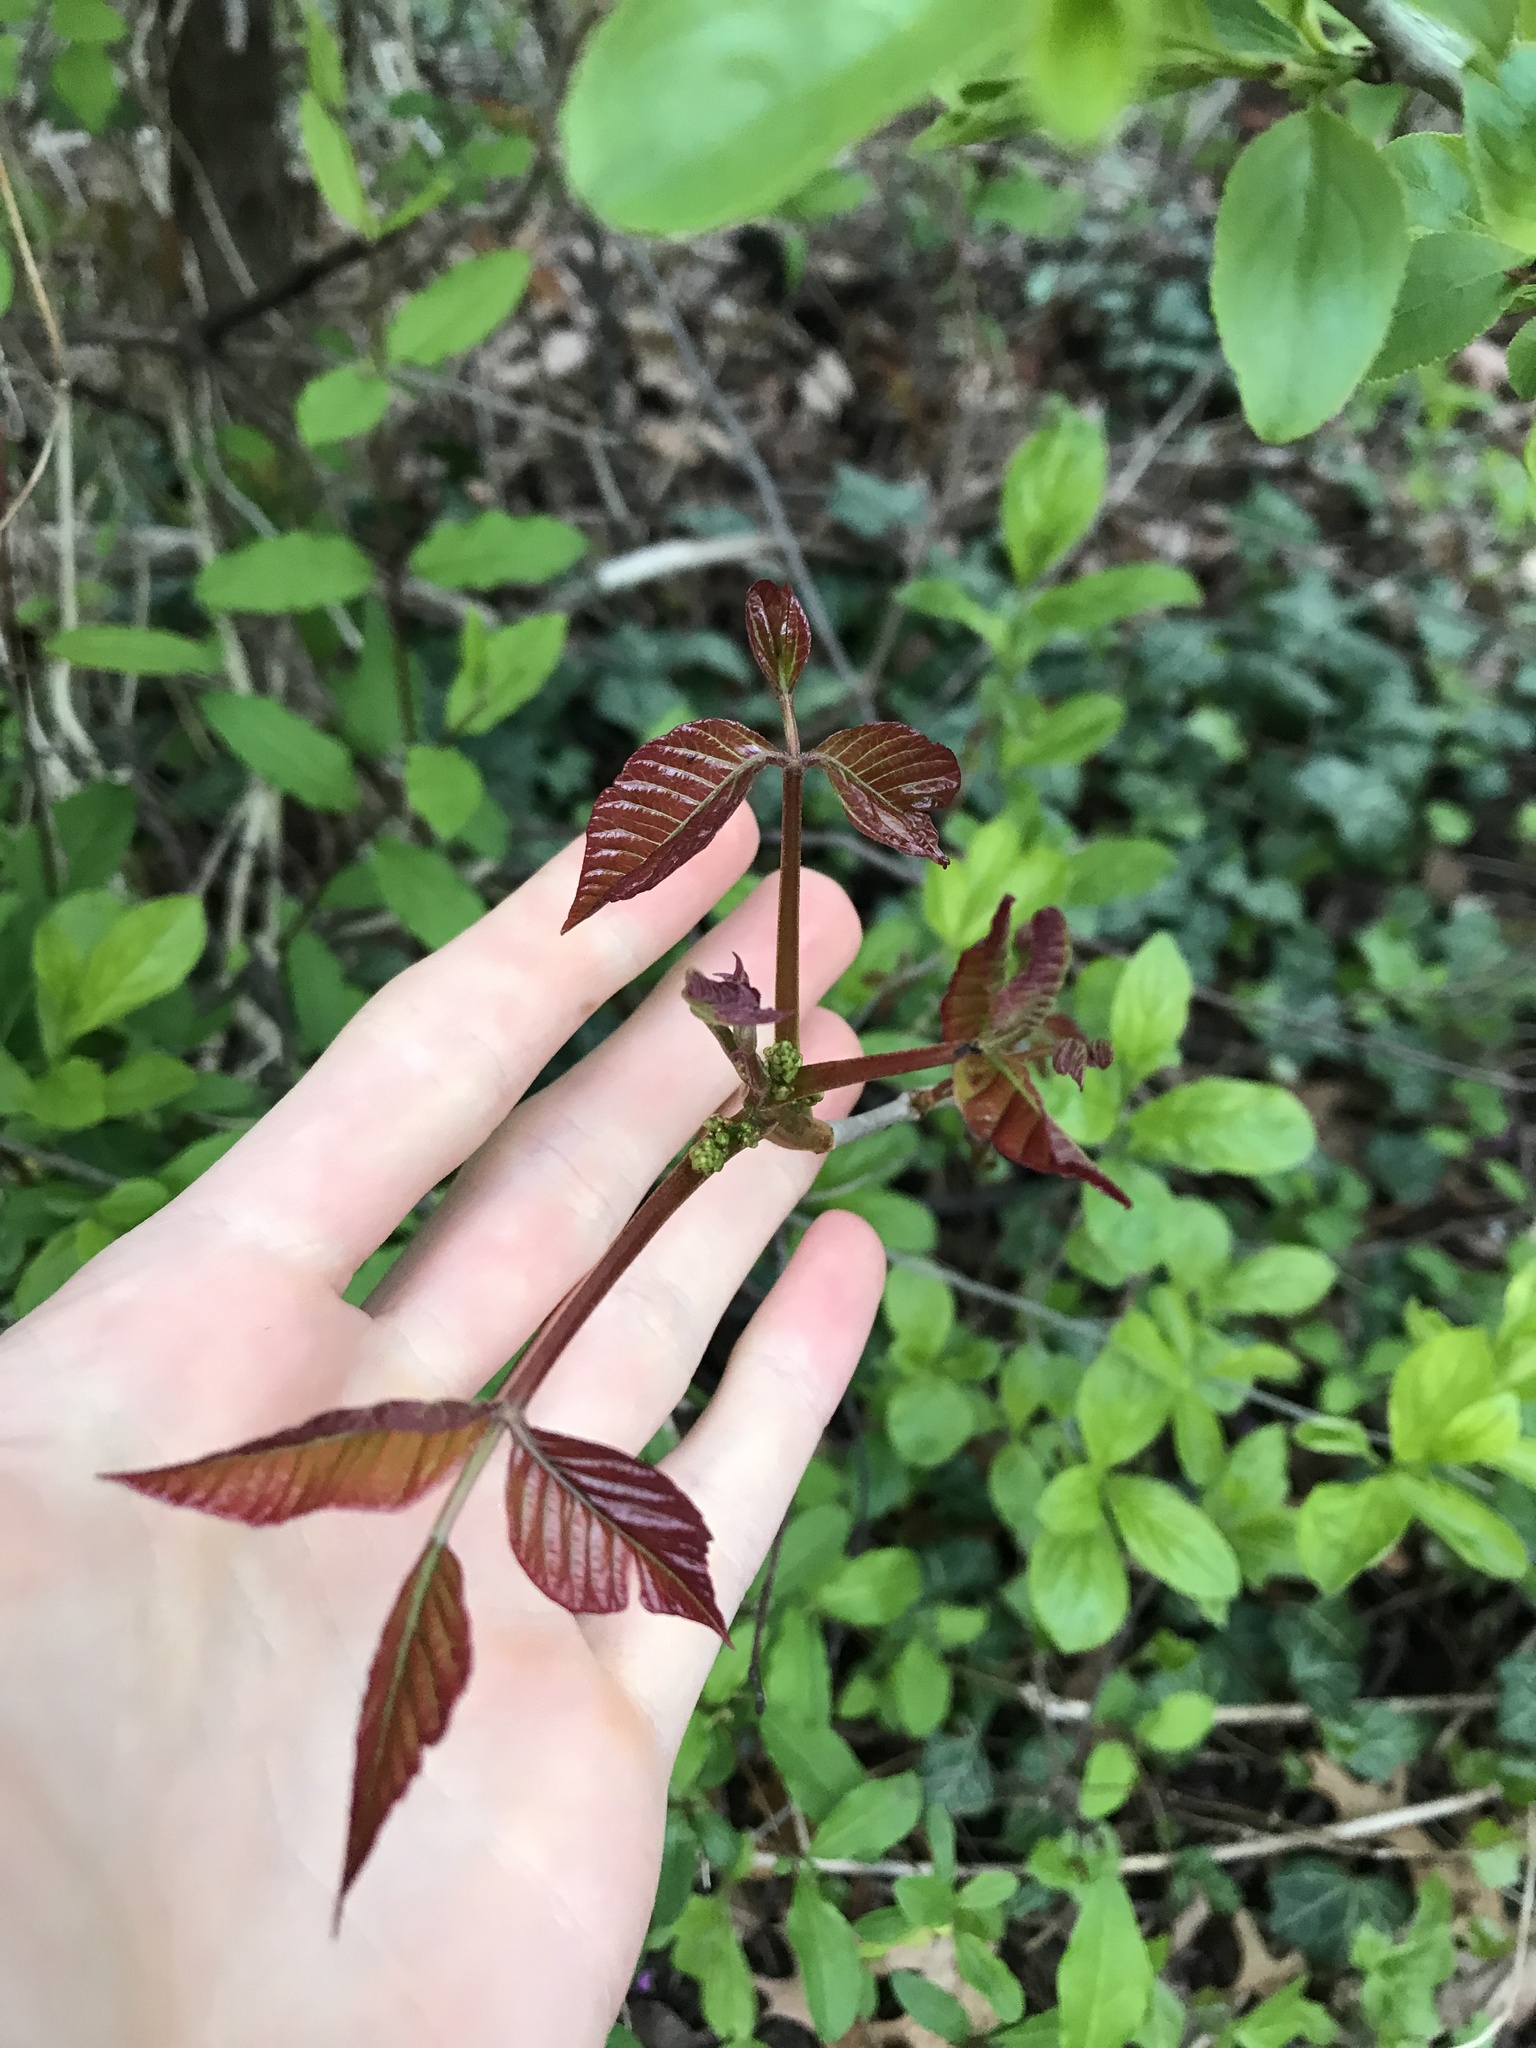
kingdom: Plantae
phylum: Tracheophyta
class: Magnoliopsida
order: Sapindales
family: Anacardiaceae
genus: Toxicodendron
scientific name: Toxicodendron radicans
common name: Poison ivy
